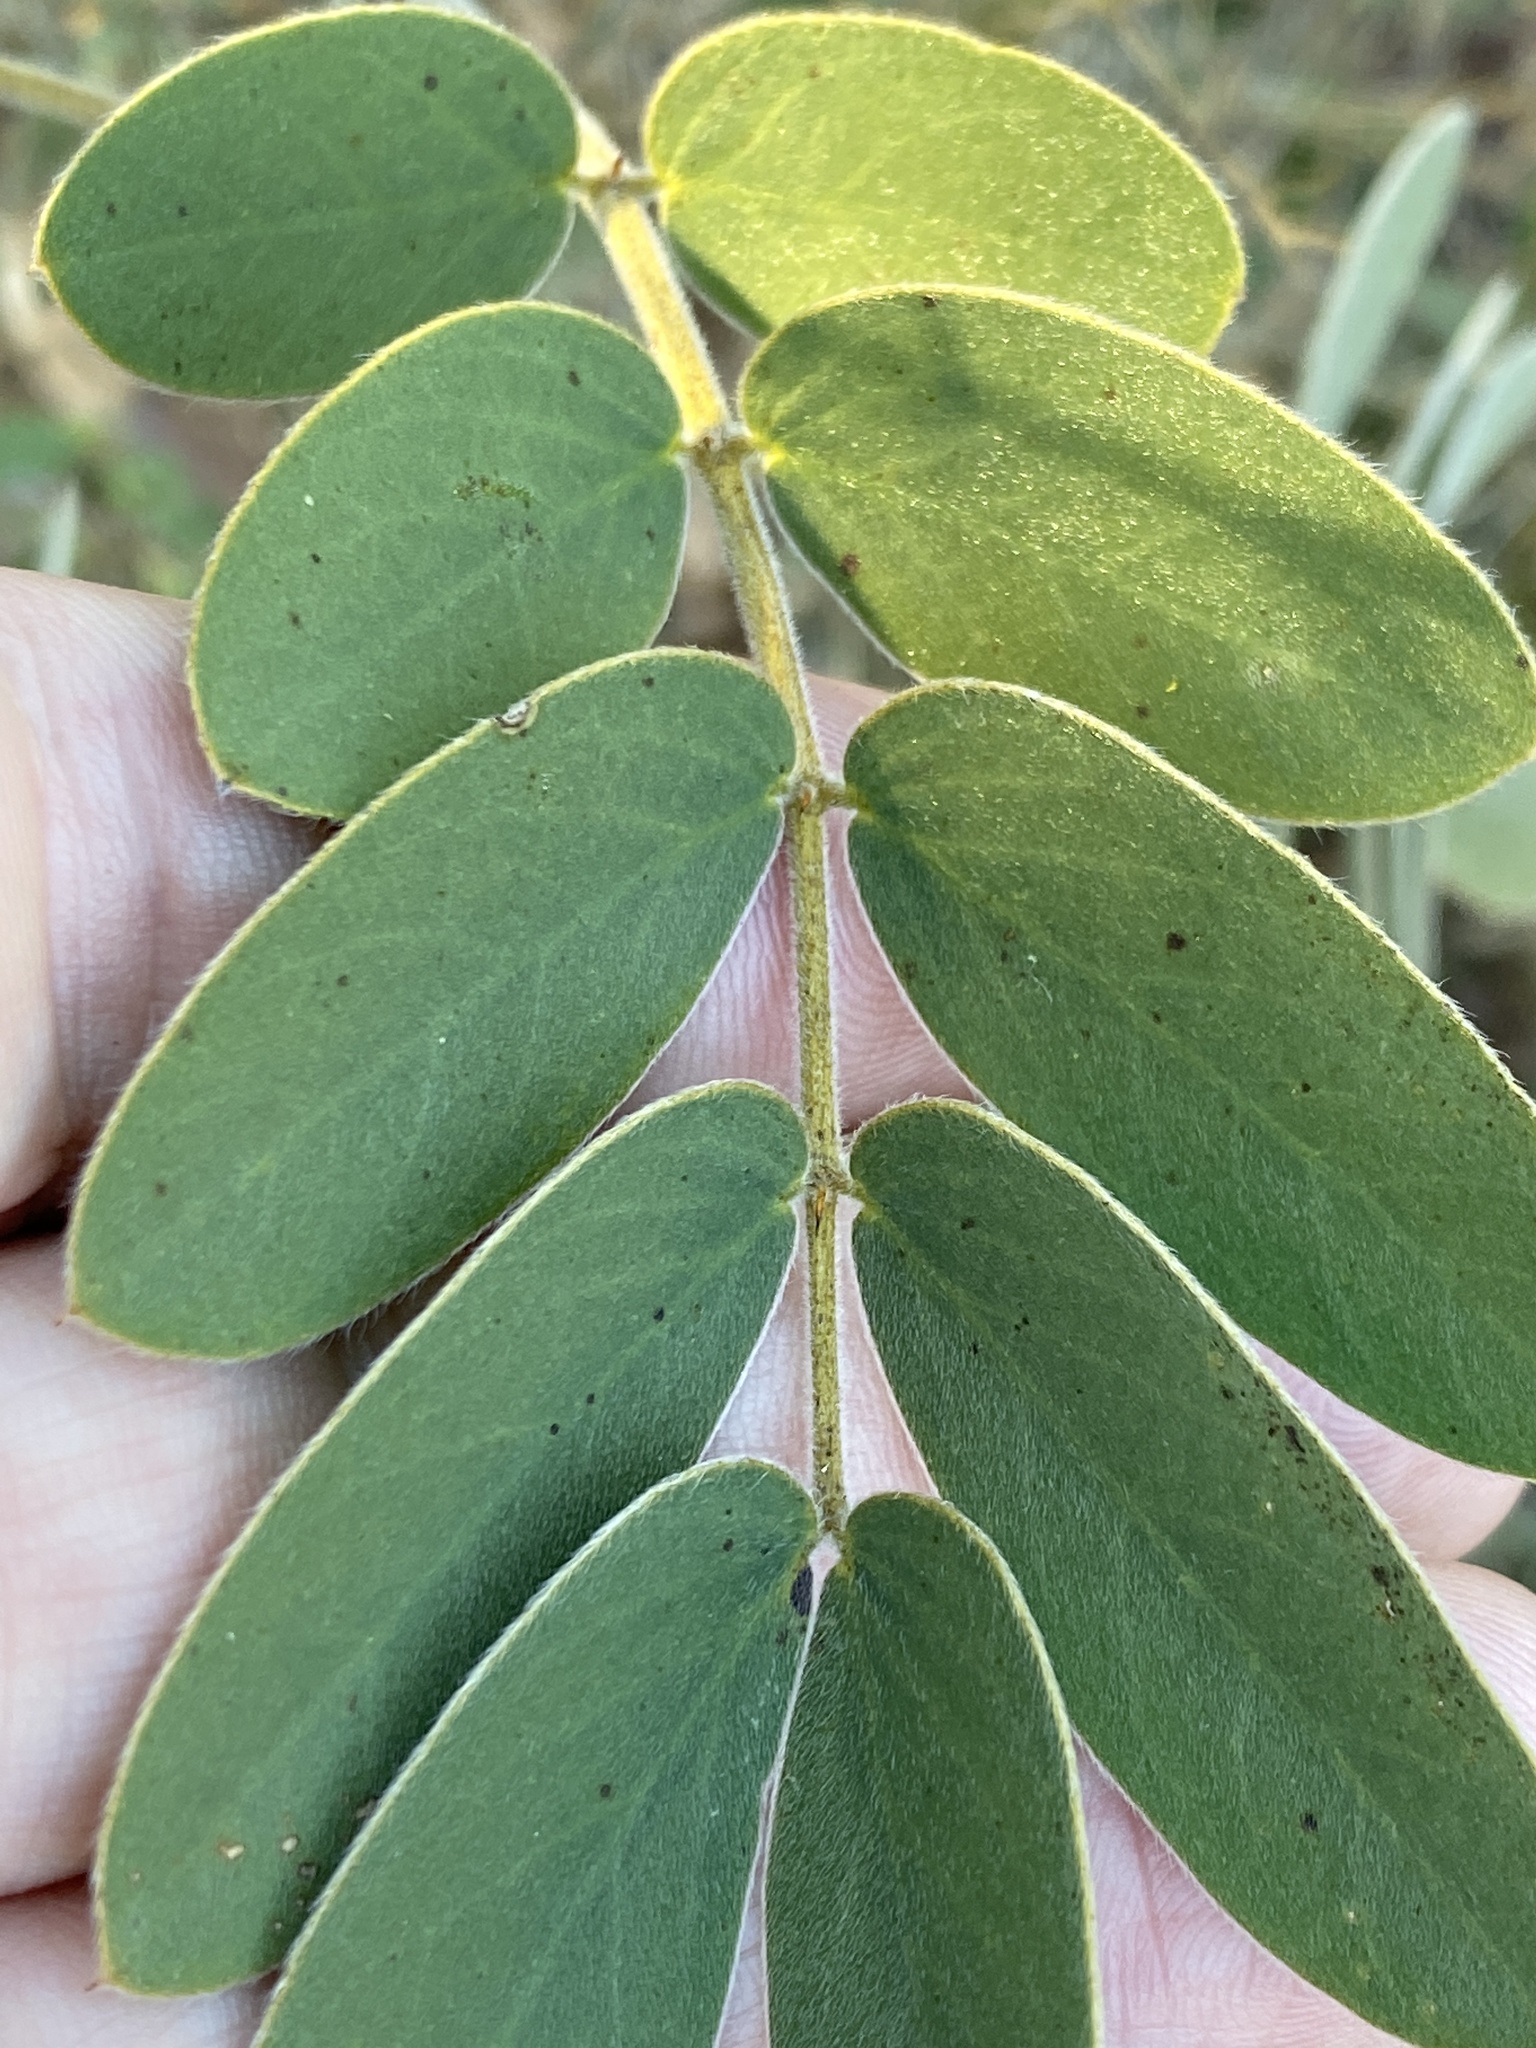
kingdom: Plantae
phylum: Tracheophyta
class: Magnoliopsida
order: Fabales
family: Fabaceae
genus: Senna
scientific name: Senna lindheimeriana
